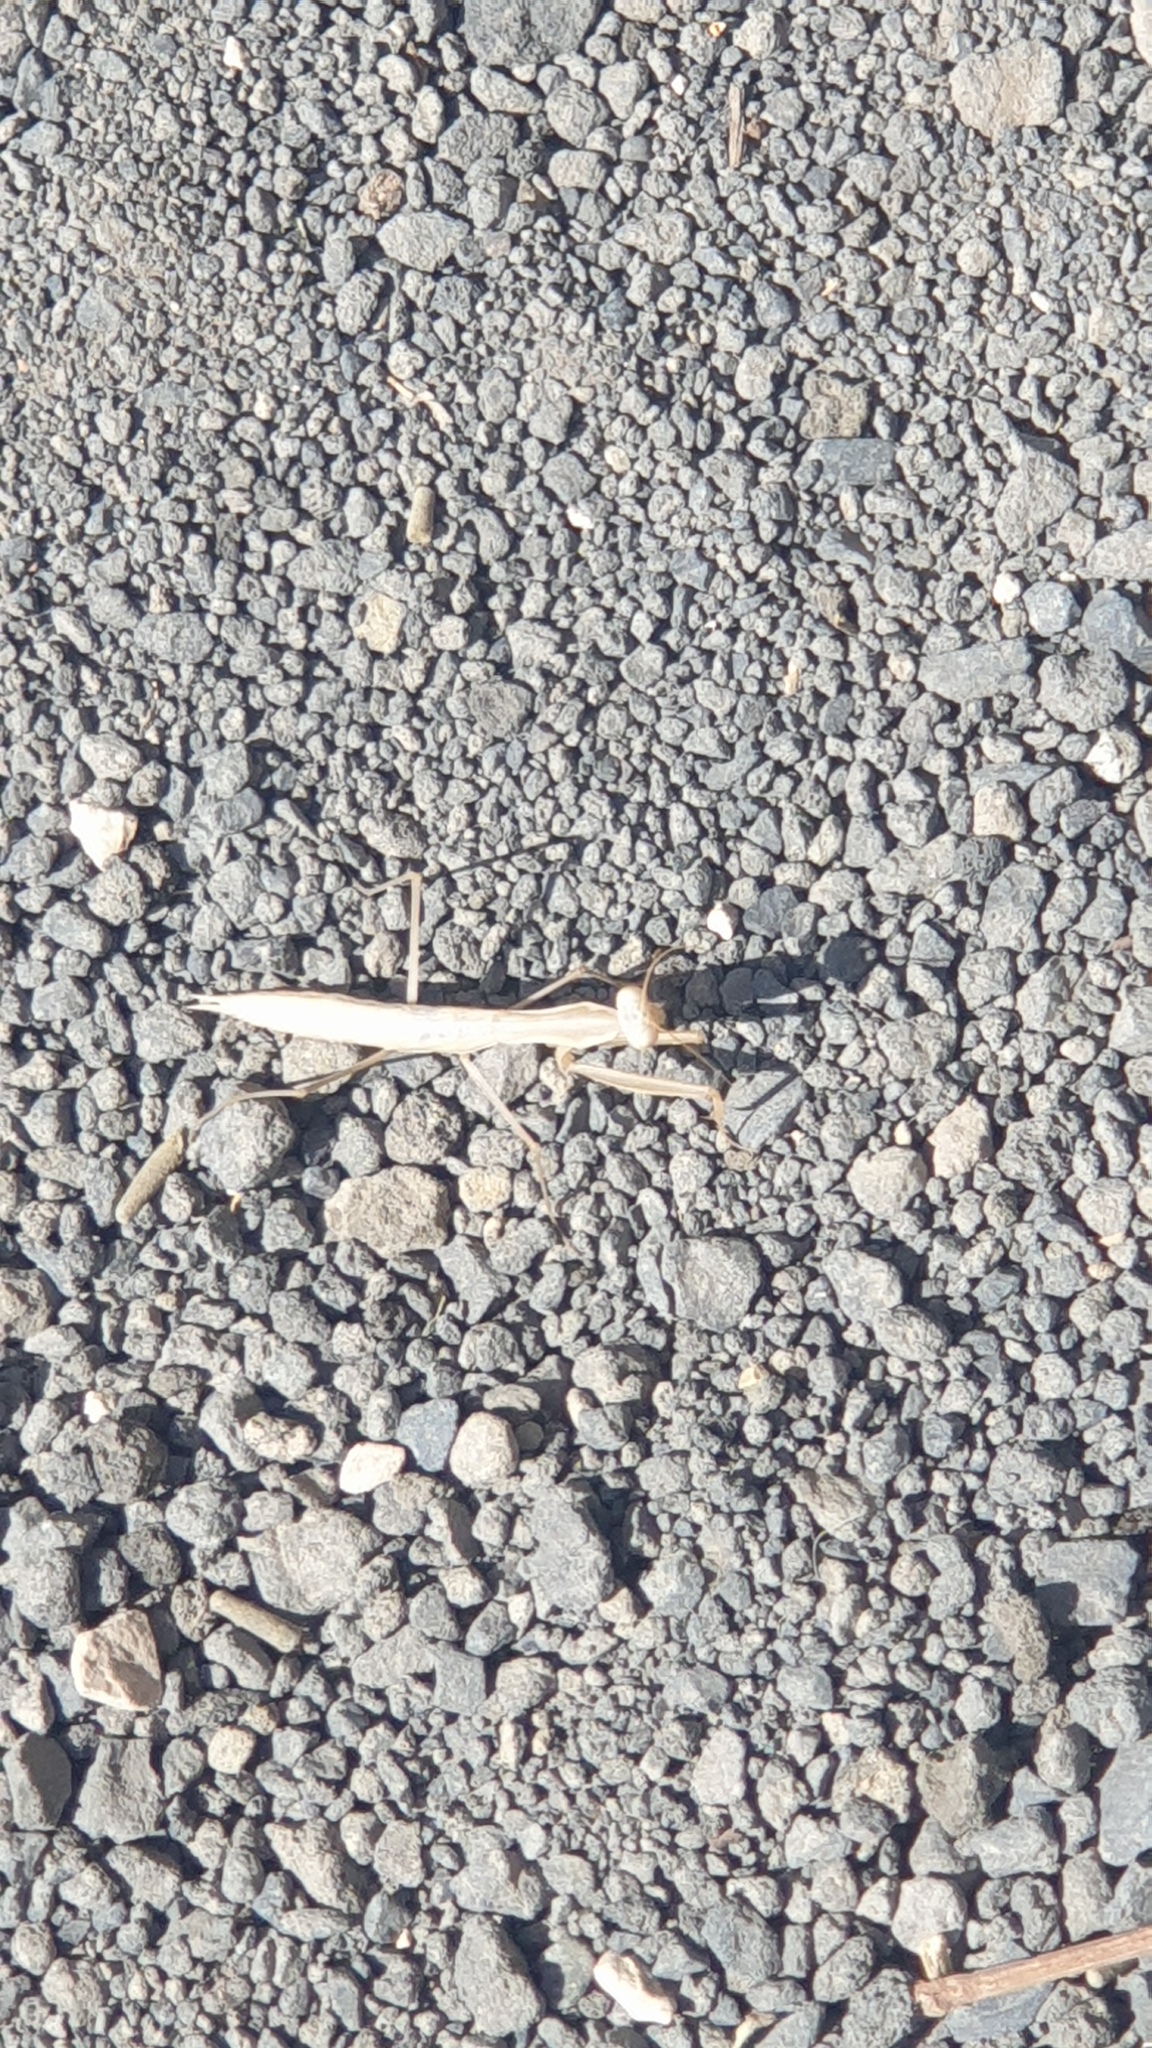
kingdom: Animalia
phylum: Arthropoda
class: Insecta
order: Mantodea
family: Mantidae
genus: Mantis
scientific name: Mantis religiosa
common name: Praying mantis
